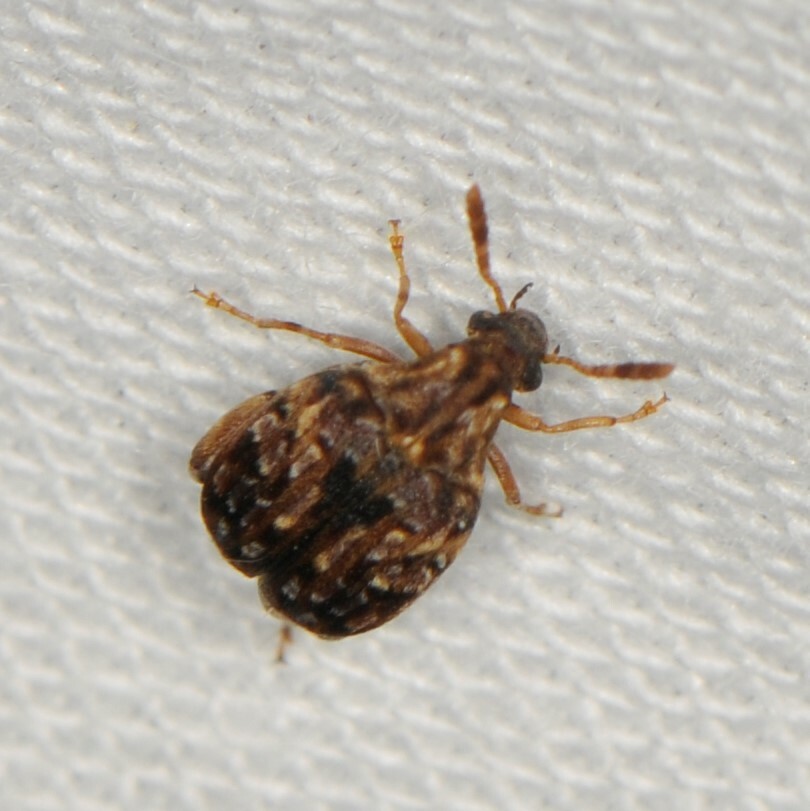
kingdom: Animalia
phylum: Arthropoda
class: Insecta
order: Coleoptera
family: Chrysomelidae
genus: Gibbobruchus
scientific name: Gibbobruchus mimus
